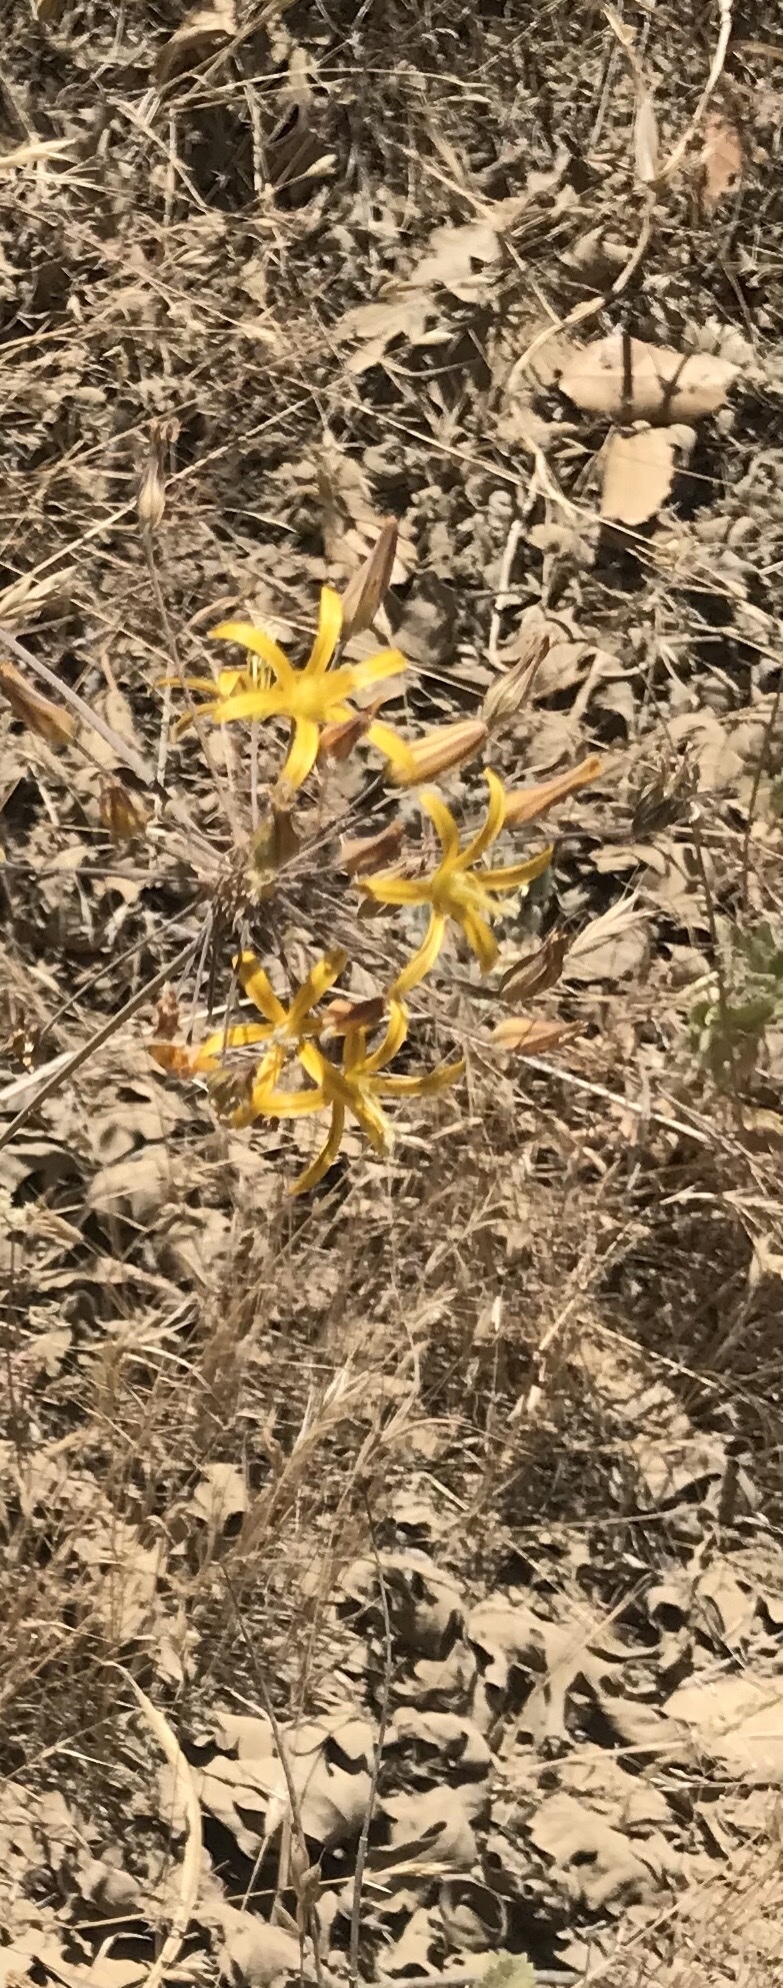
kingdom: Plantae
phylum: Tracheophyta
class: Liliopsida
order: Asparagales
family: Asparagaceae
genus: Bloomeria
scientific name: Bloomeria crocea
